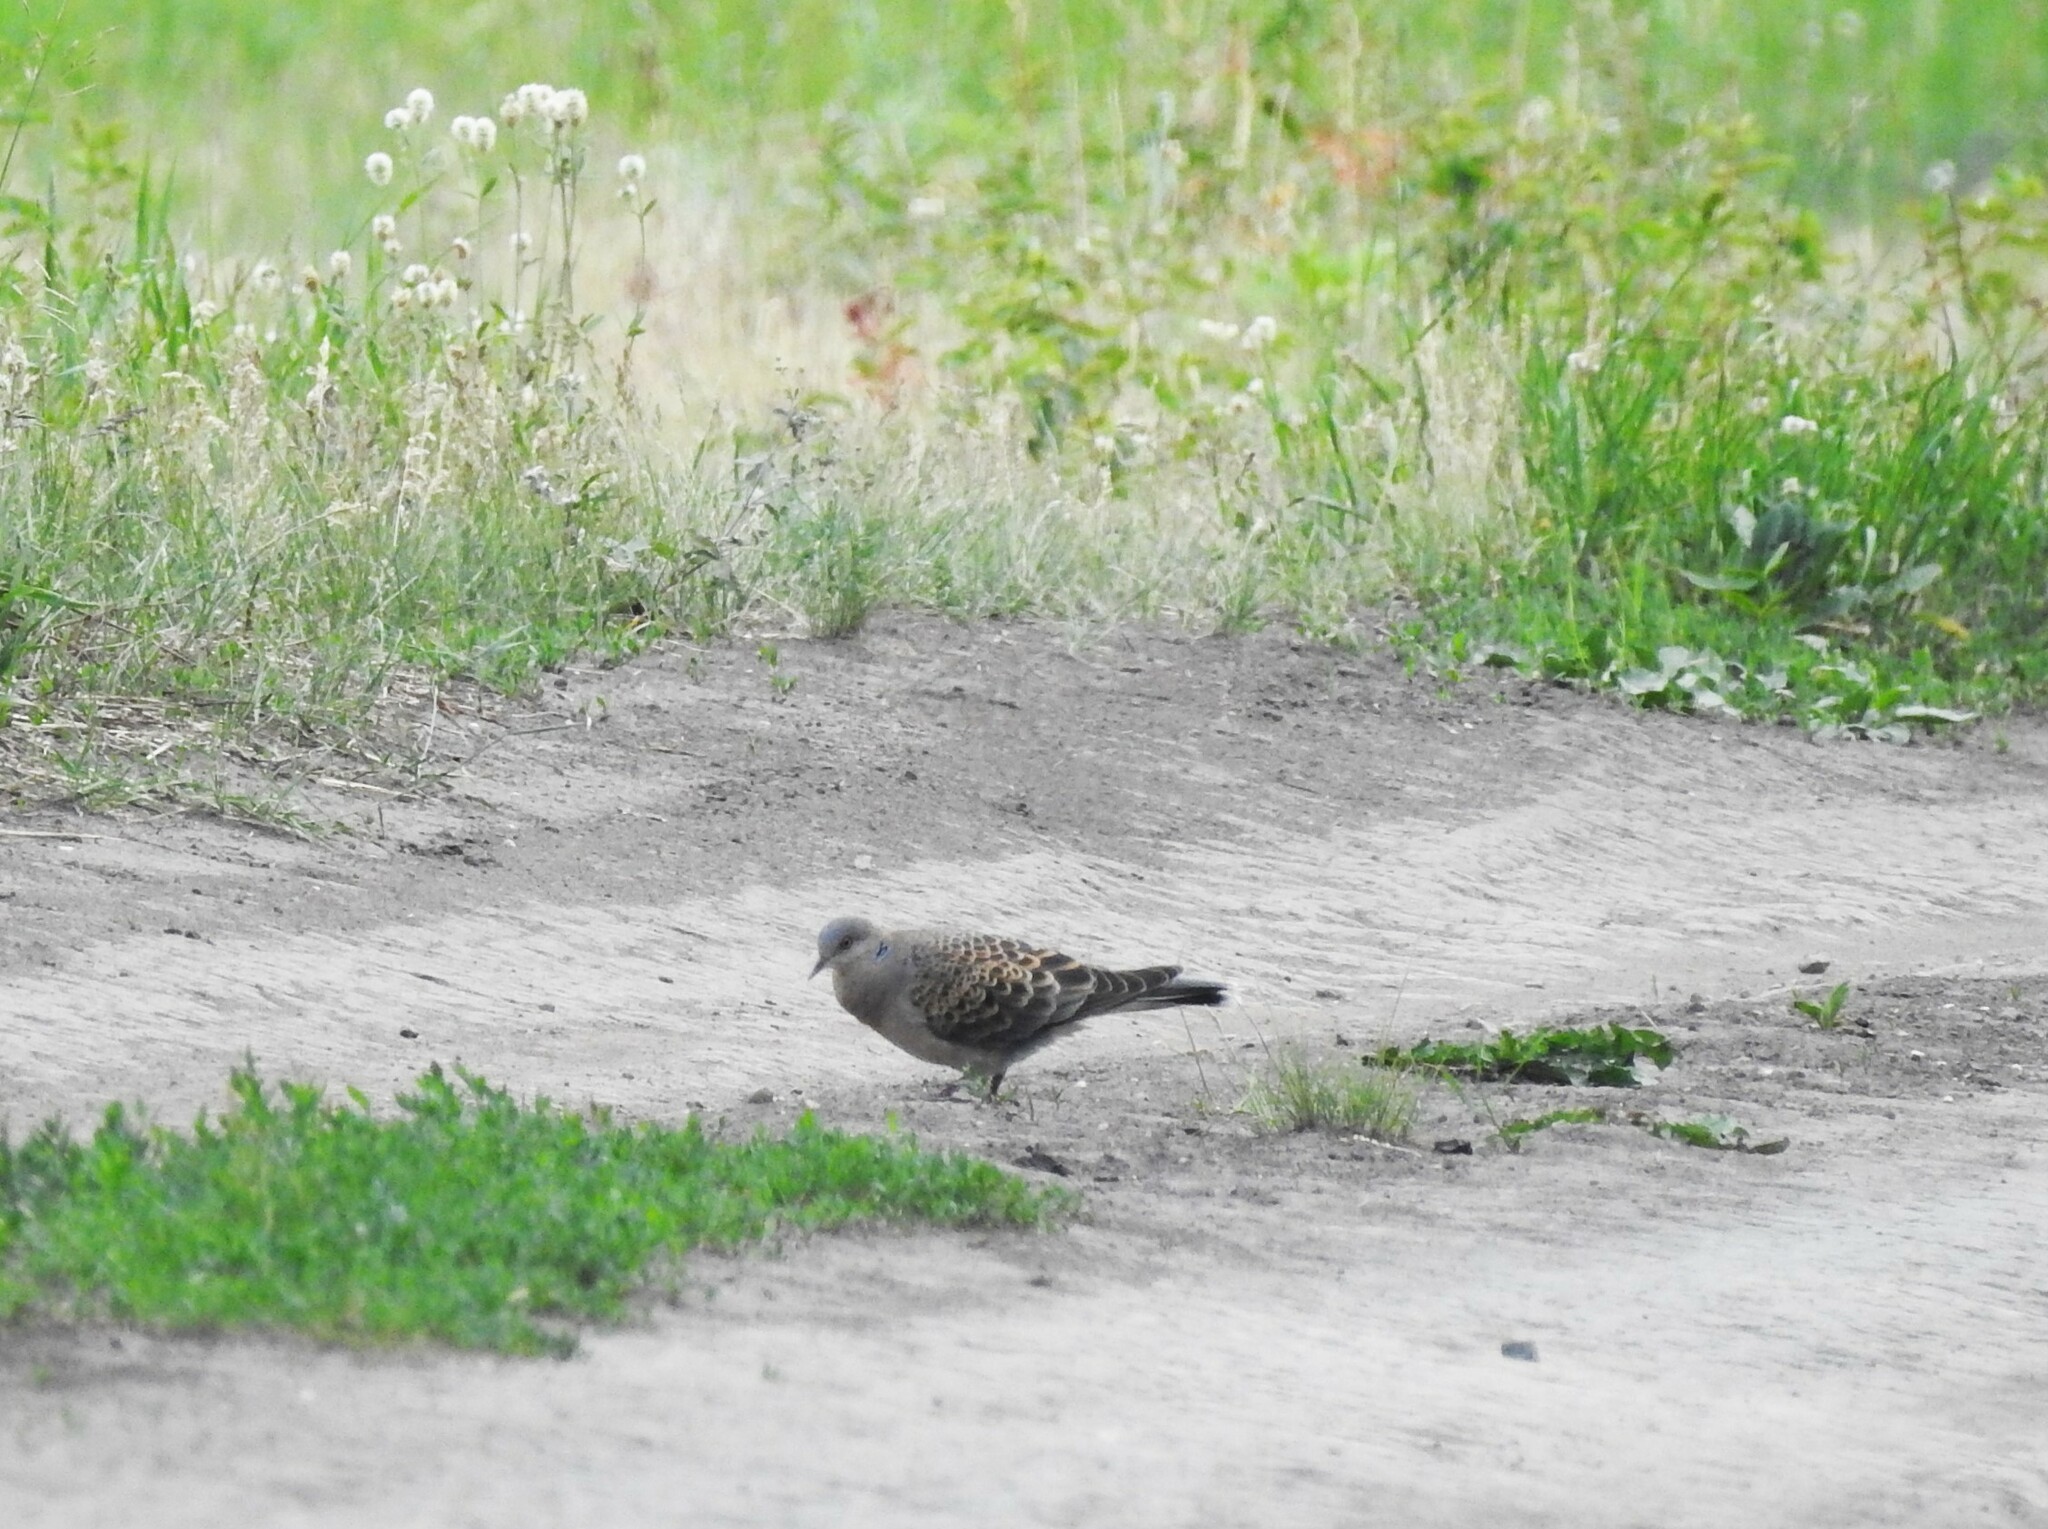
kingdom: Animalia
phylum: Chordata
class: Aves
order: Columbiformes
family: Columbidae
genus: Streptopelia
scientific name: Streptopelia orientalis
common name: Oriental turtle dove
